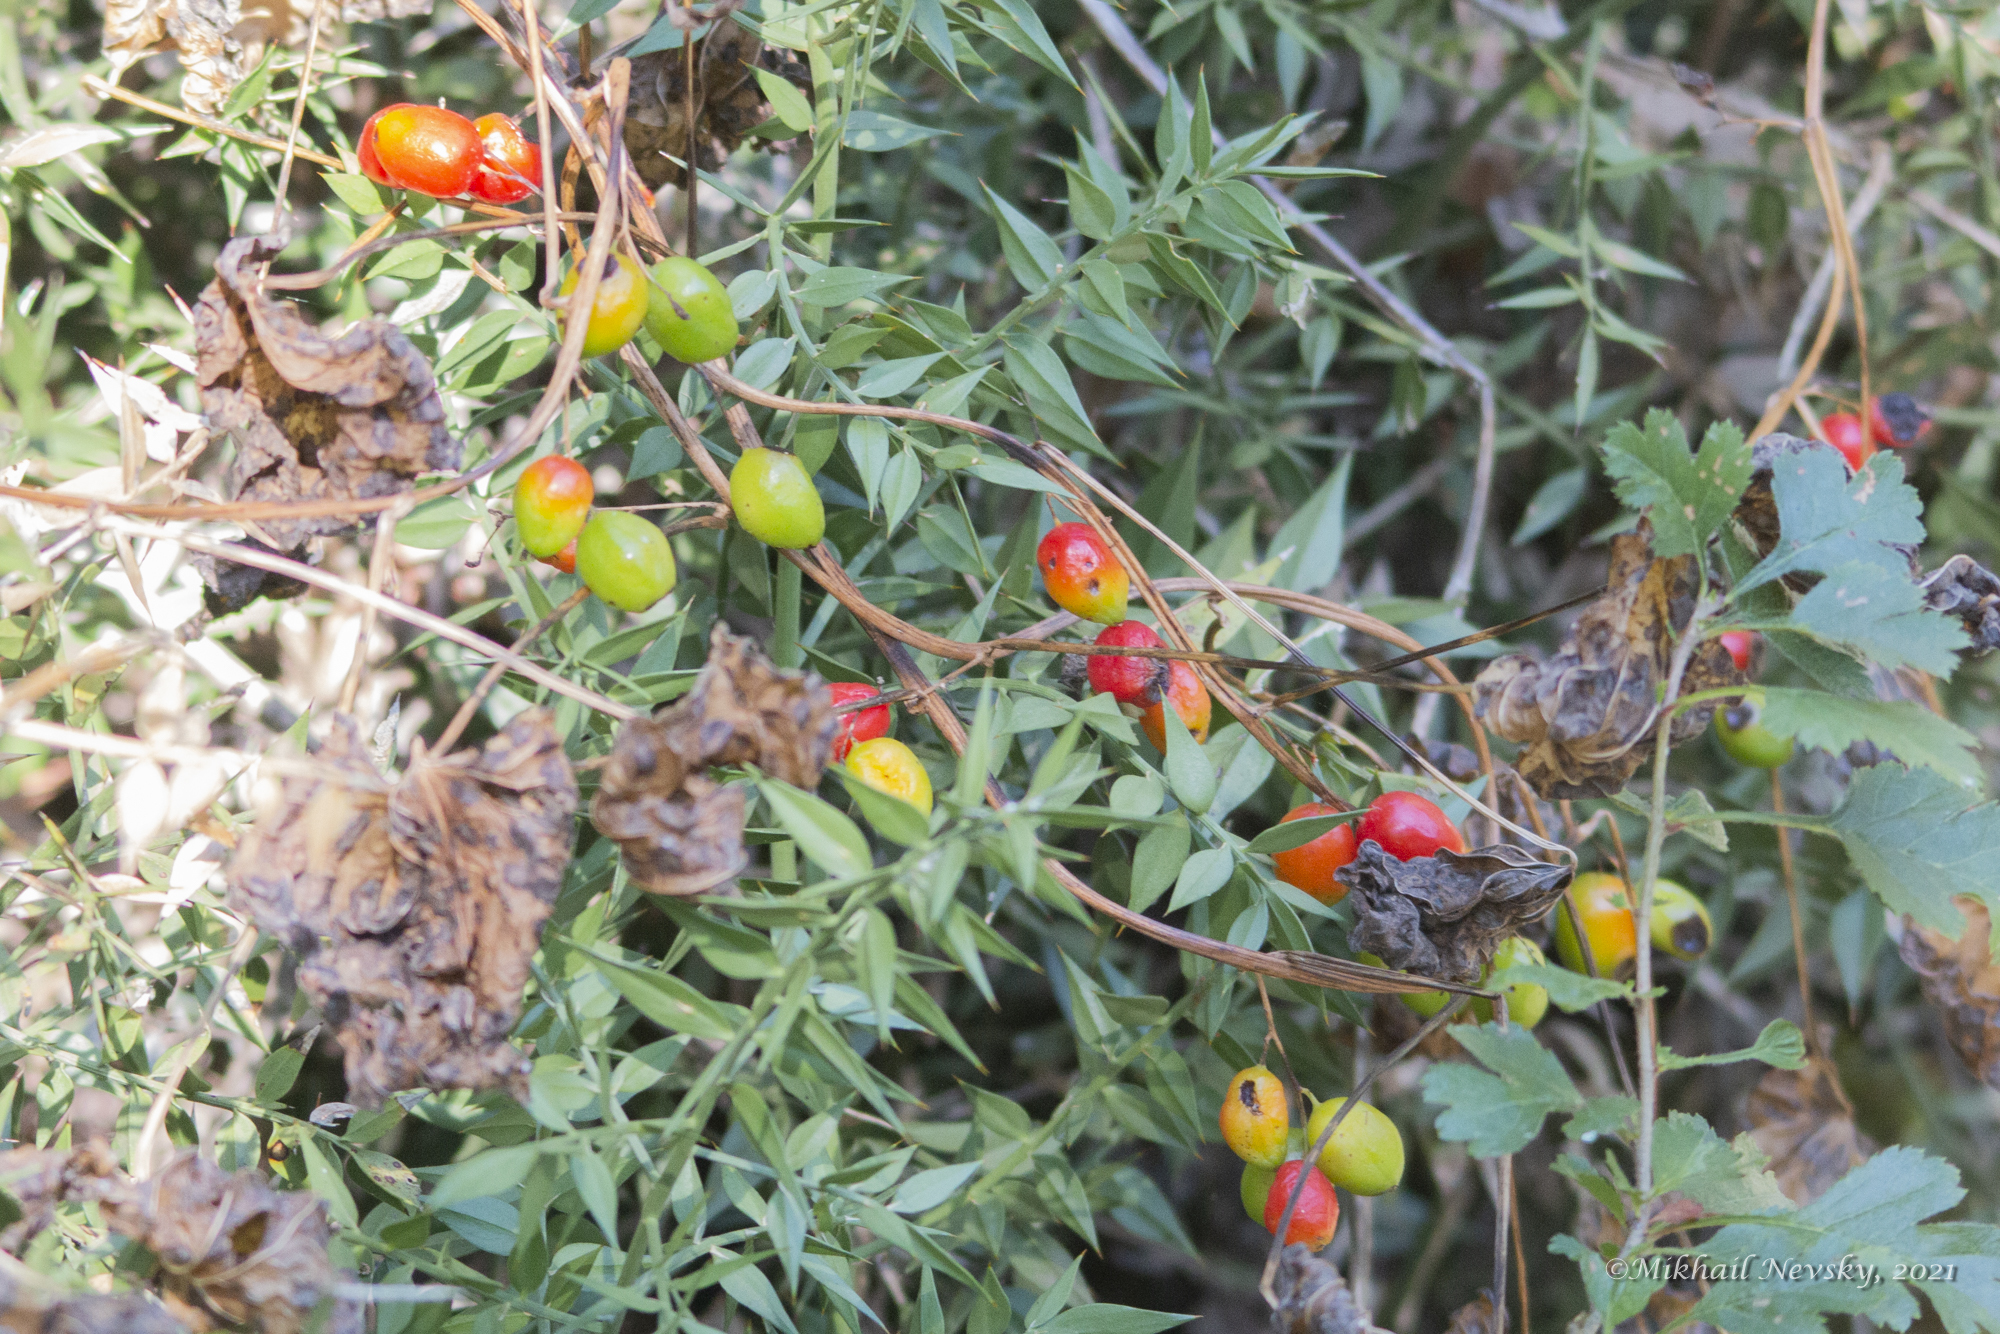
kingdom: Plantae
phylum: Tracheophyta
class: Liliopsida
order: Dioscoreales
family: Dioscoreaceae
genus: Dioscorea
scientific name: Dioscorea communis
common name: Black-bindweed
